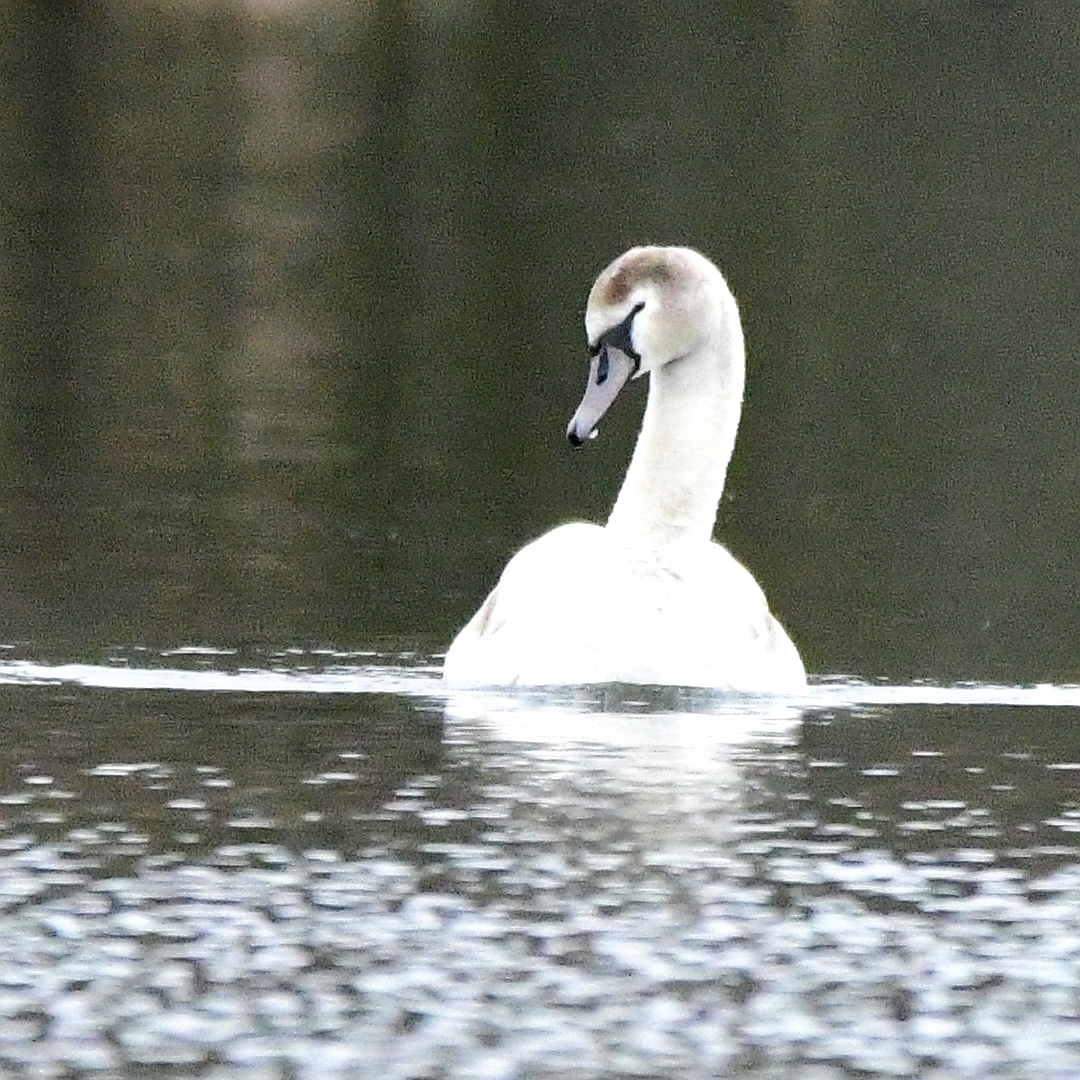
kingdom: Animalia
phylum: Chordata
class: Aves
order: Anseriformes
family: Anatidae
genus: Cygnus
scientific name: Cygnus olor
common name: Mute swan
